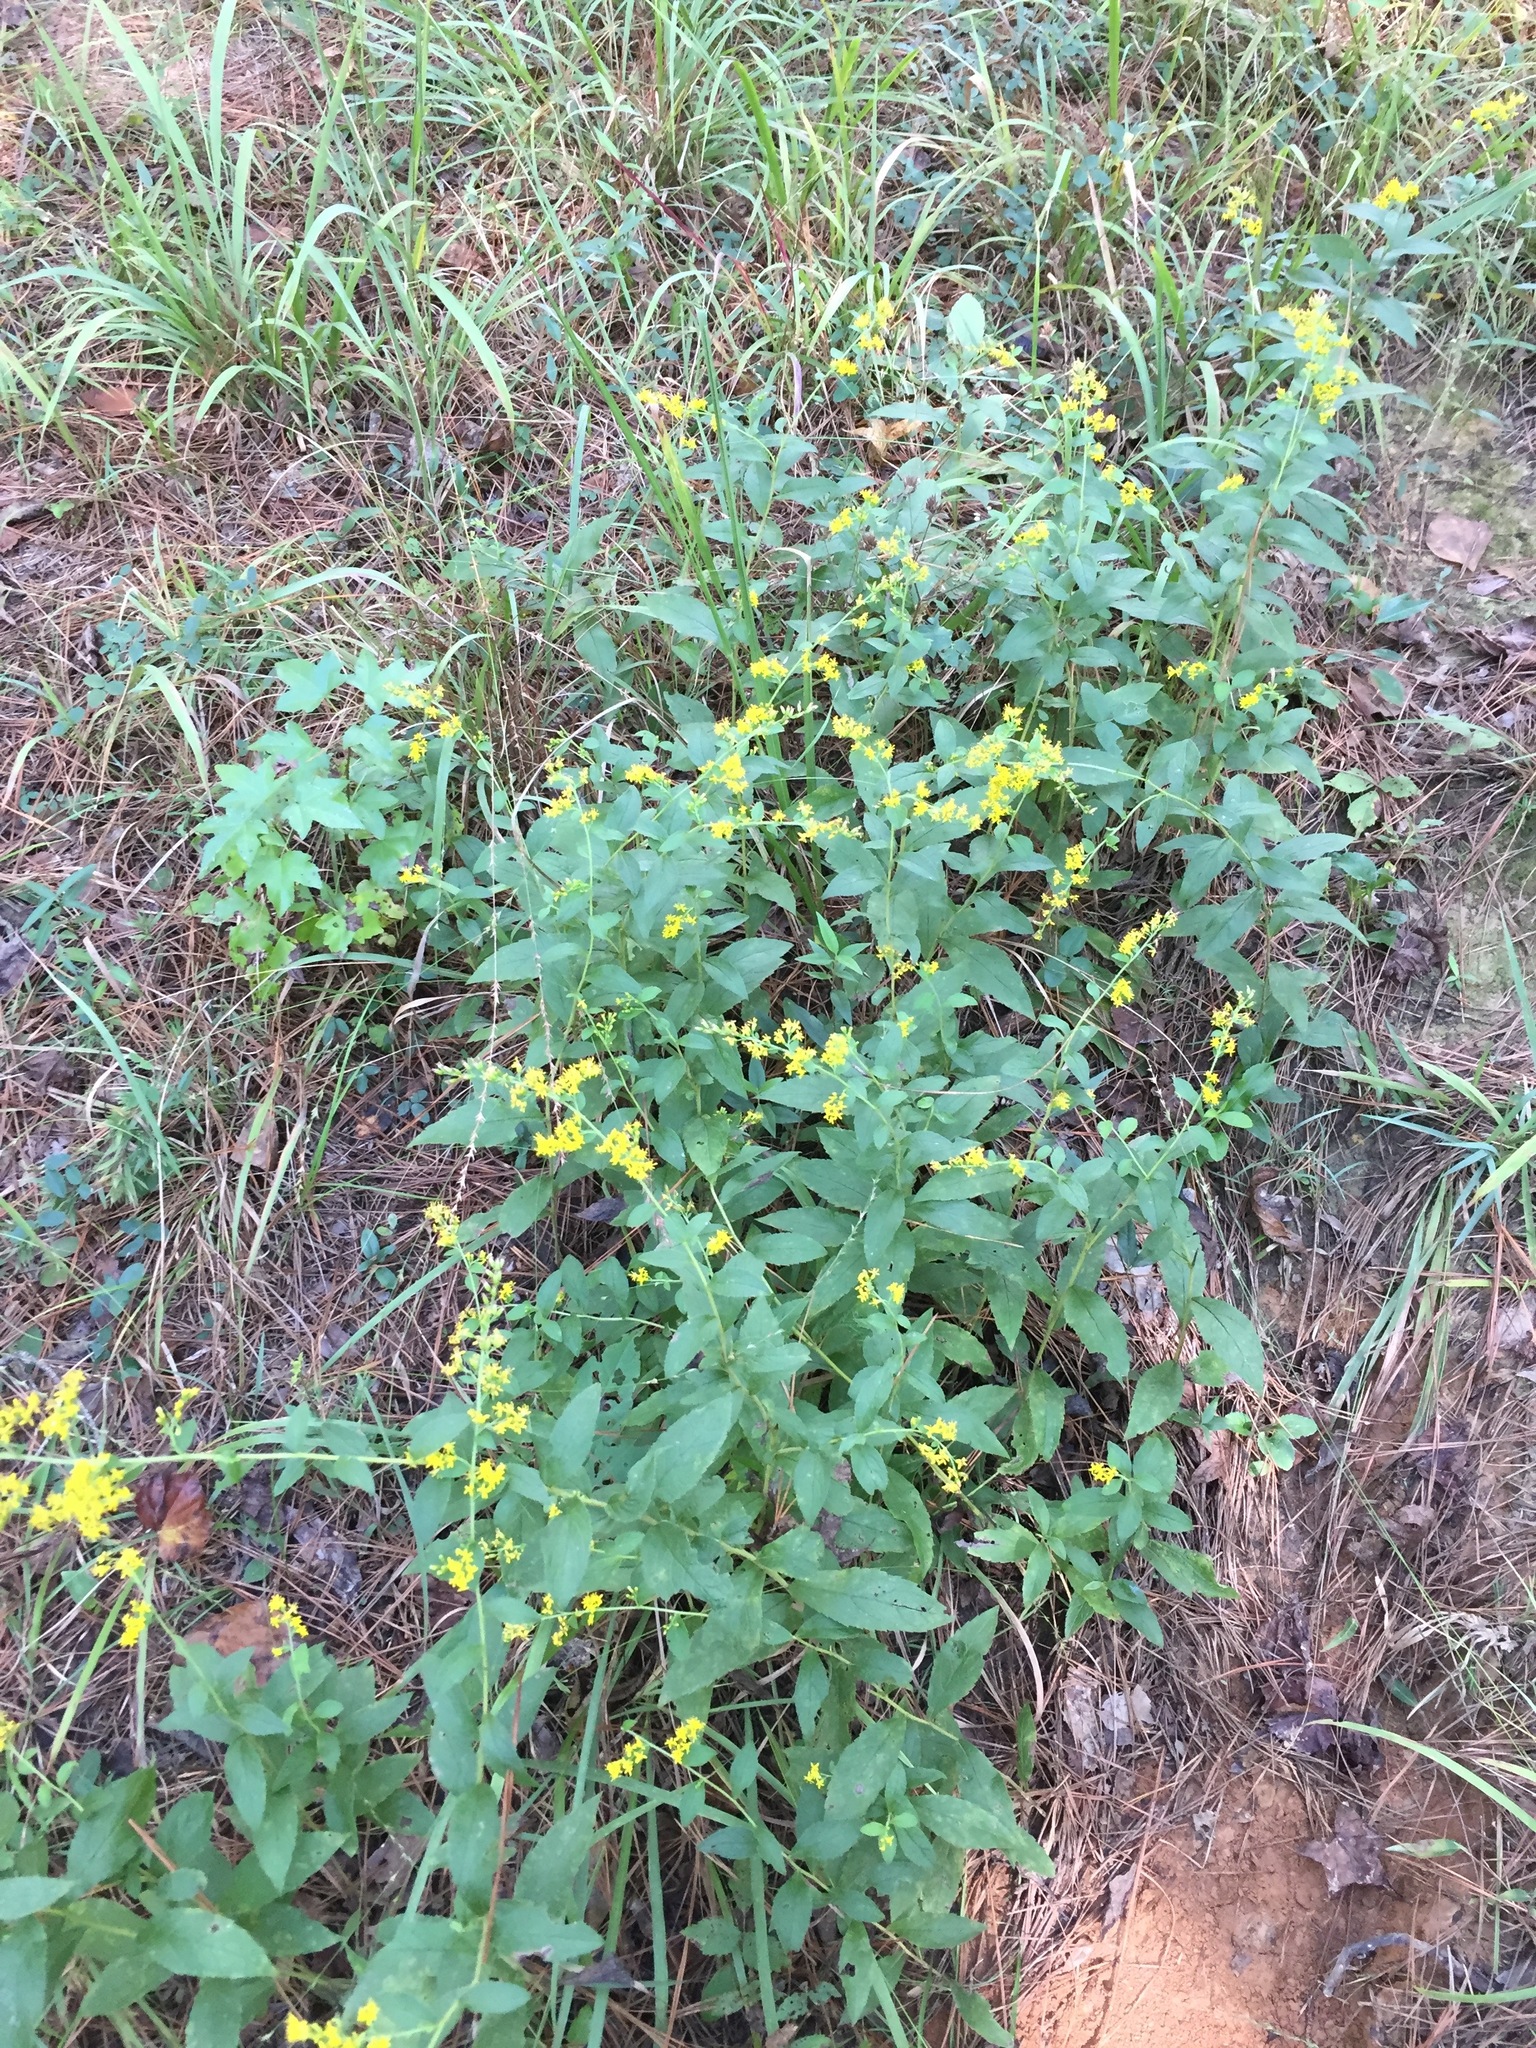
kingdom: Plantae
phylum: Tracheophyta
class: Magnoliopsida
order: Asterales
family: Asteraceae
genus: Solidago
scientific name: Solidago rugosa
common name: Rough-stemmed goldenrod
